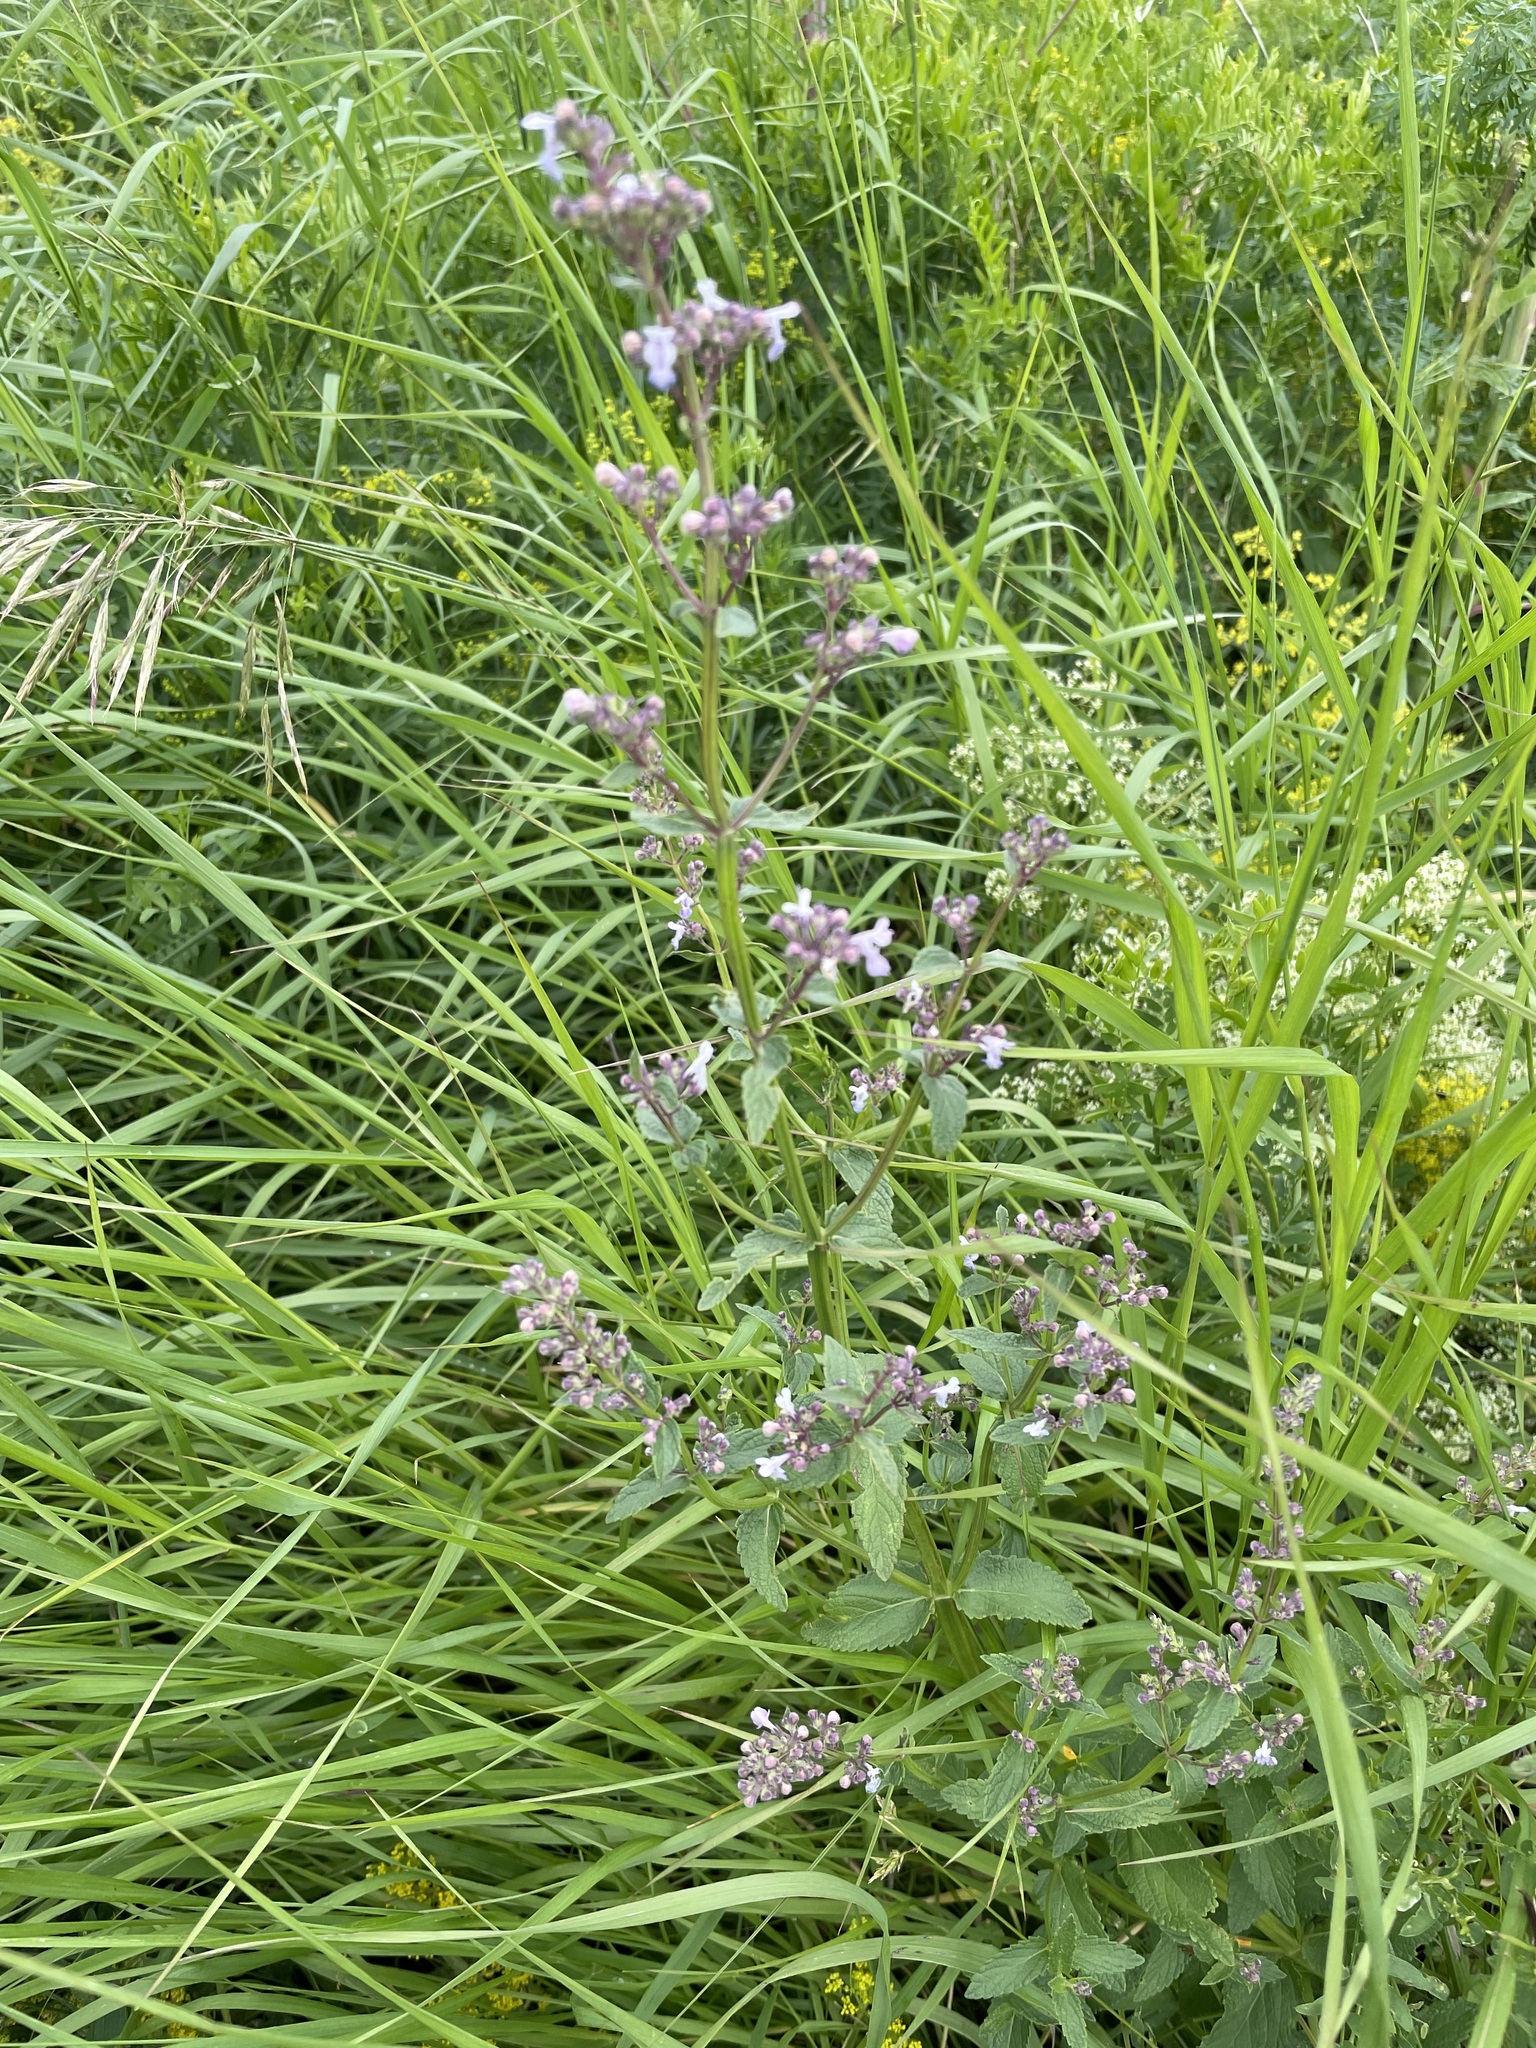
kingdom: Plantae
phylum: Tracheophyta
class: Magnoliopsida
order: Lamiales
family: Lamiaceae
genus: Nepeta
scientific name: Nepeta nuda
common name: Hairless catmint
